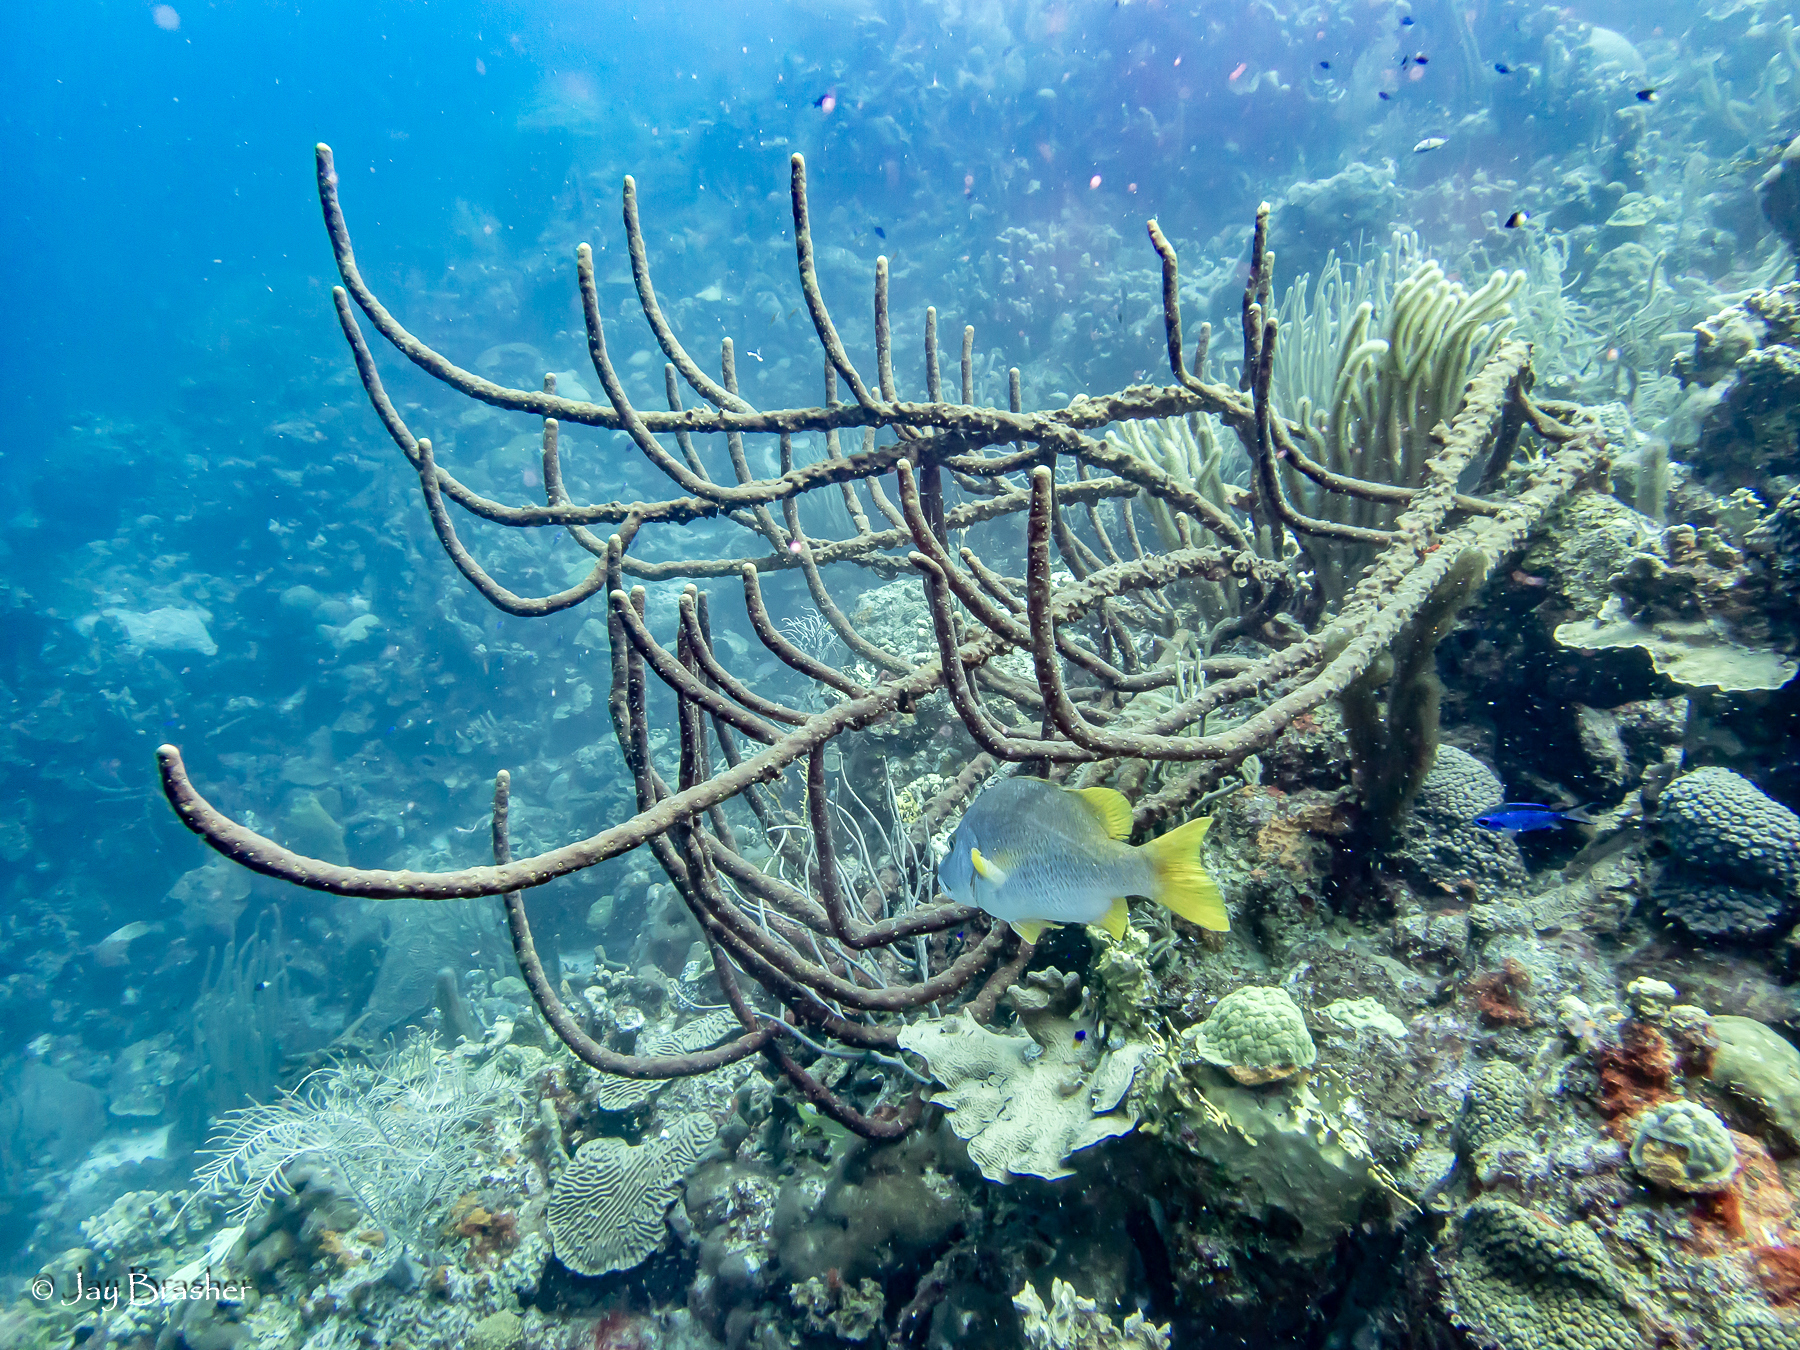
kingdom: Animalia
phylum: Porifera
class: Demospongiae
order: Verongiida
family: Aplysinidae
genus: Aplysina
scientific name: Aplysina cauliformis
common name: Branching candle sponge
